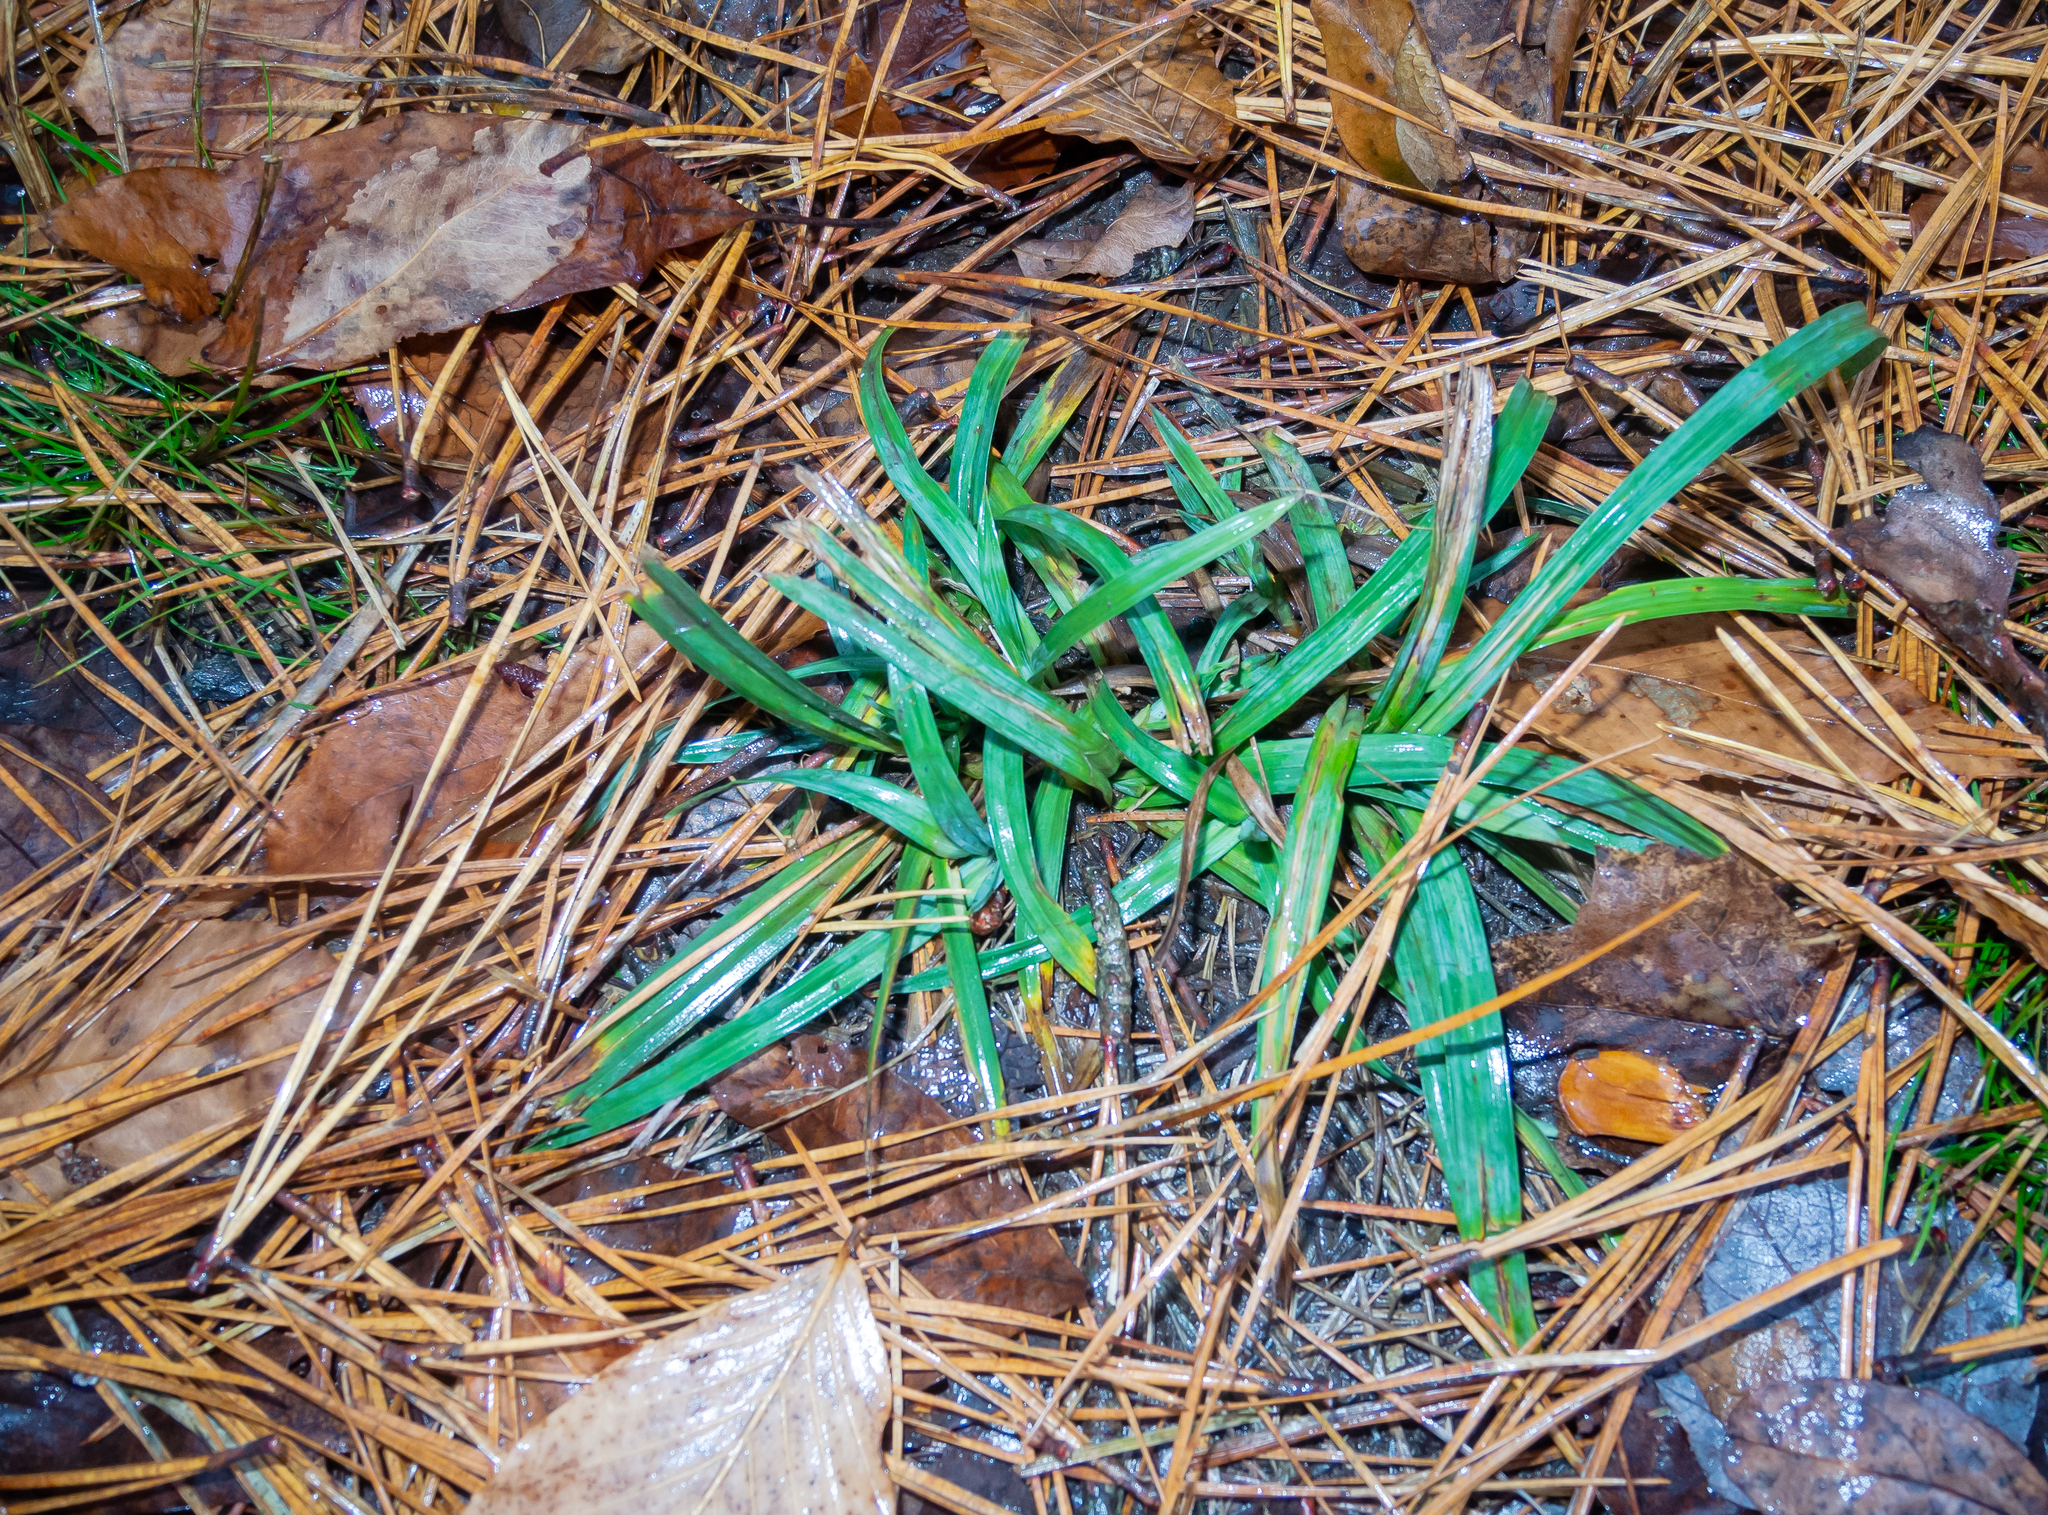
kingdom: Plantae
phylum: Tracheophyta
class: Liliopsida
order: Poales
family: Cyperaceae
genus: Carex
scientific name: Carex glaucodea
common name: Blue sedge
